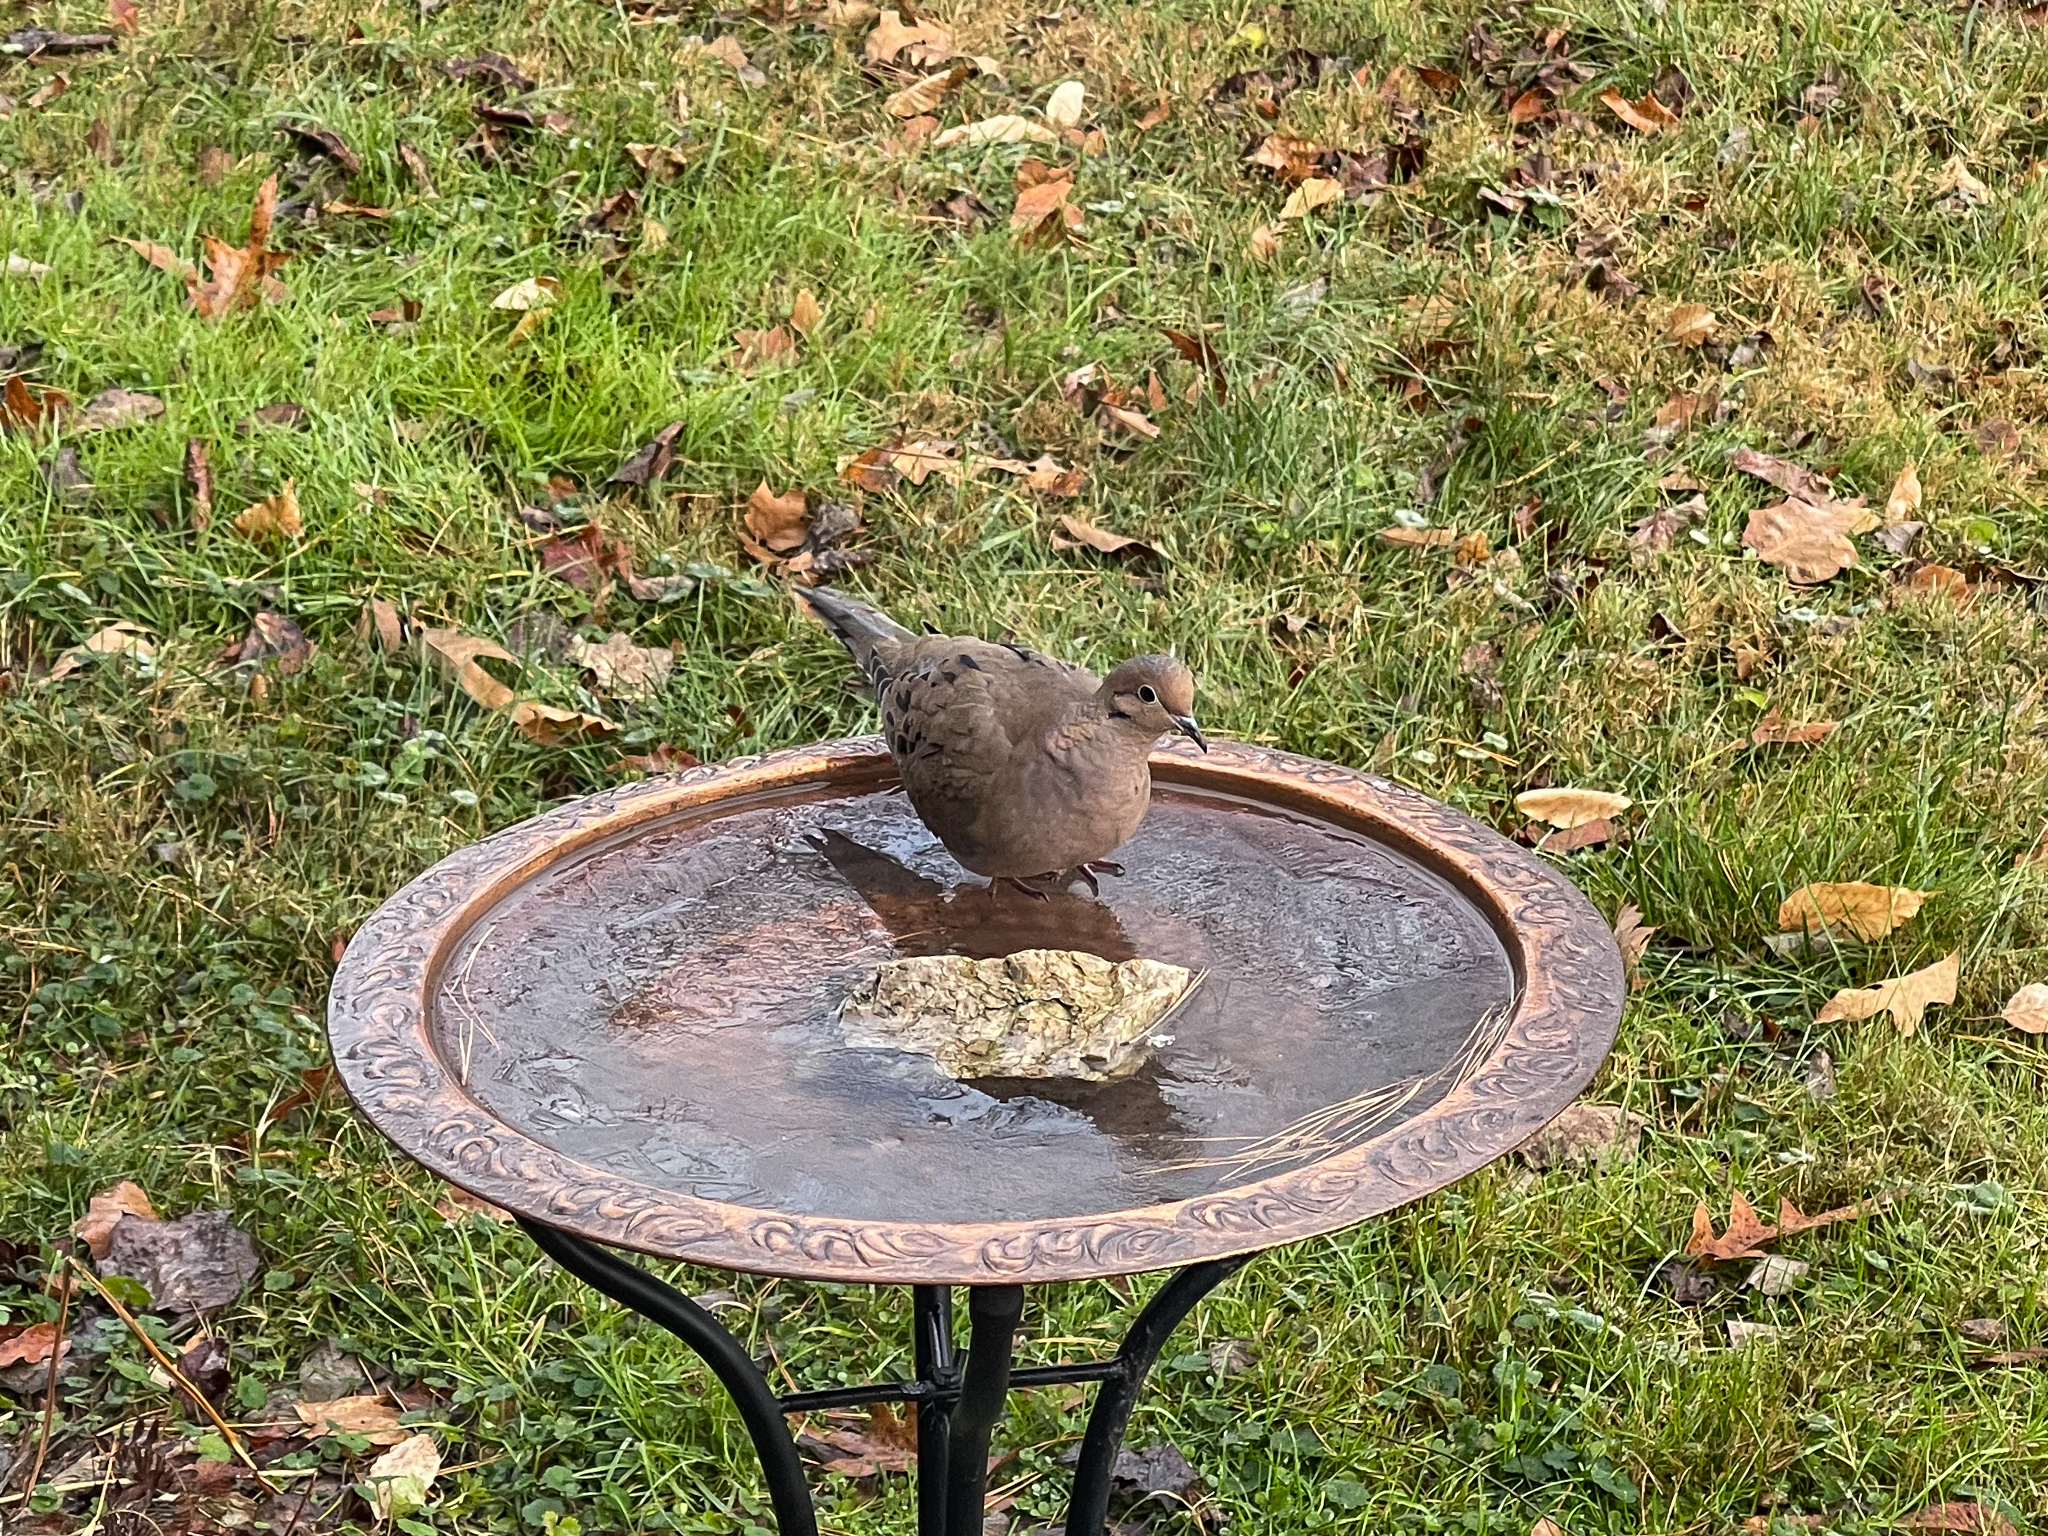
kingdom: Animalia
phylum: Chordata
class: Aves
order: Columbiformes
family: Columbidae
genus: Zenaida
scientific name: Zenaida macroura
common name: Mourning dove
